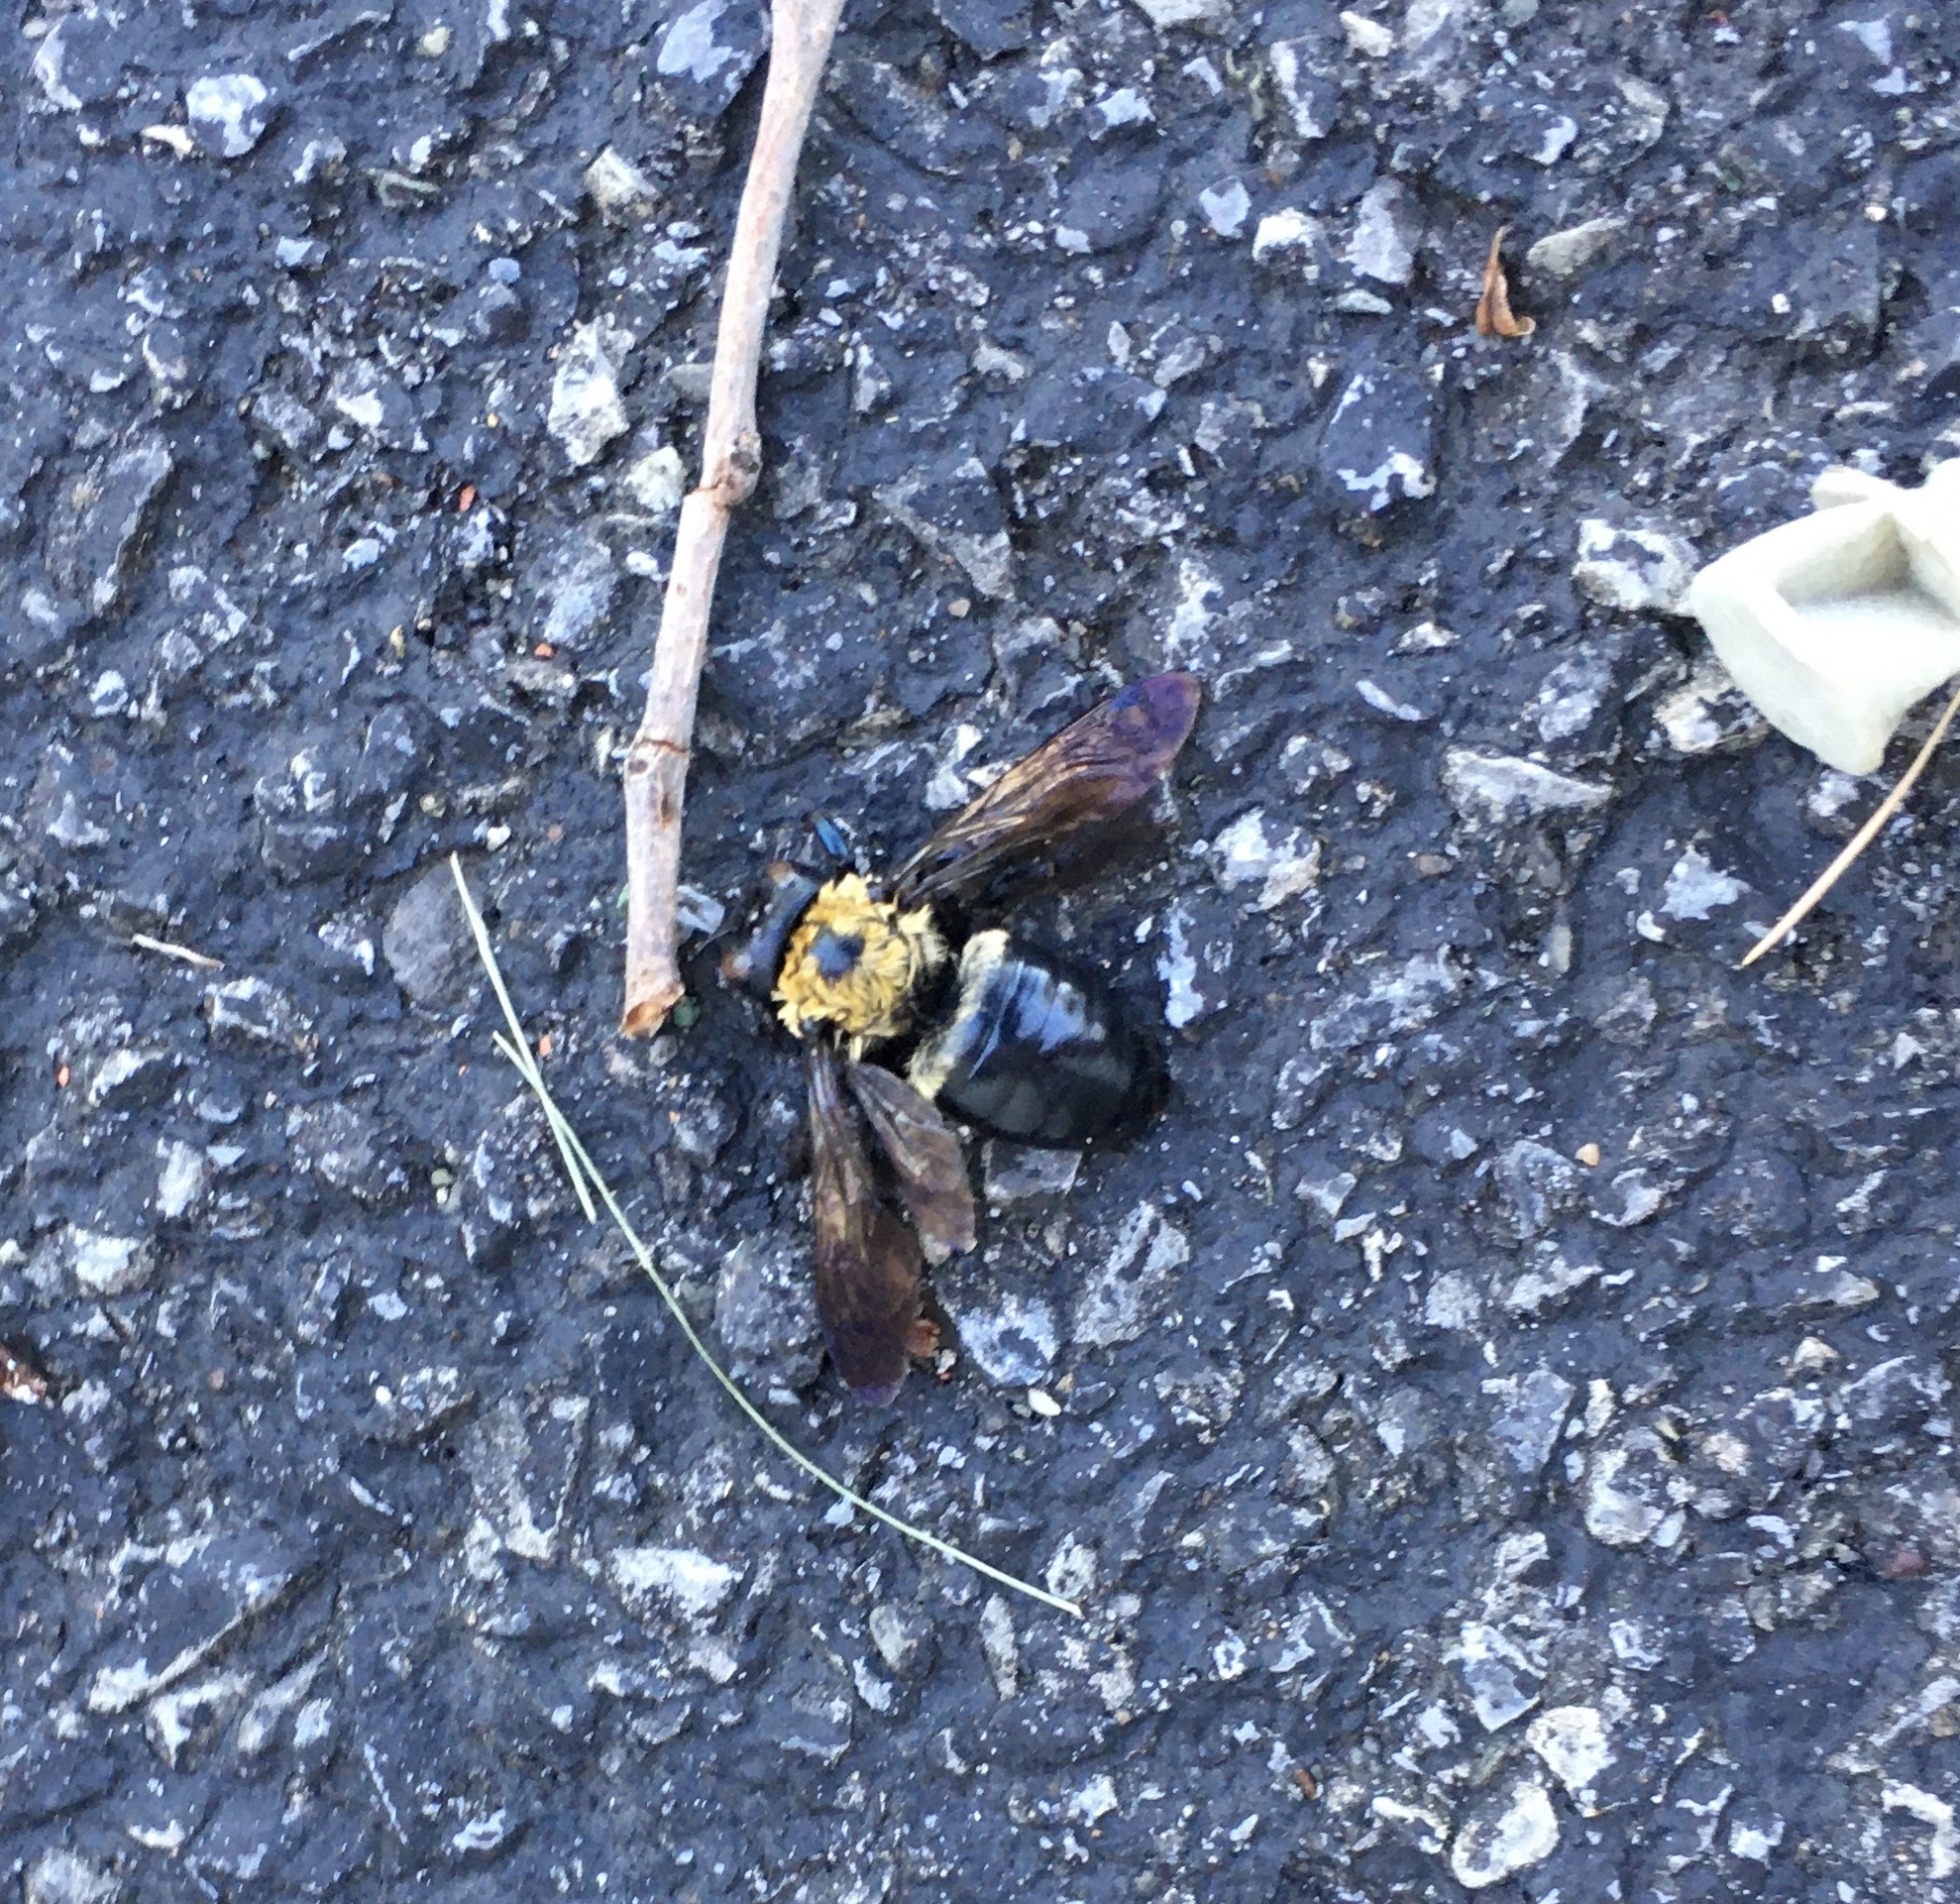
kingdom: Animalia
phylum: Arthropoda
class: Insecta
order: Hymenoptera
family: Apidae
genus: Xylocopa
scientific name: Xylocopa virginica
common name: Carpenter bee
